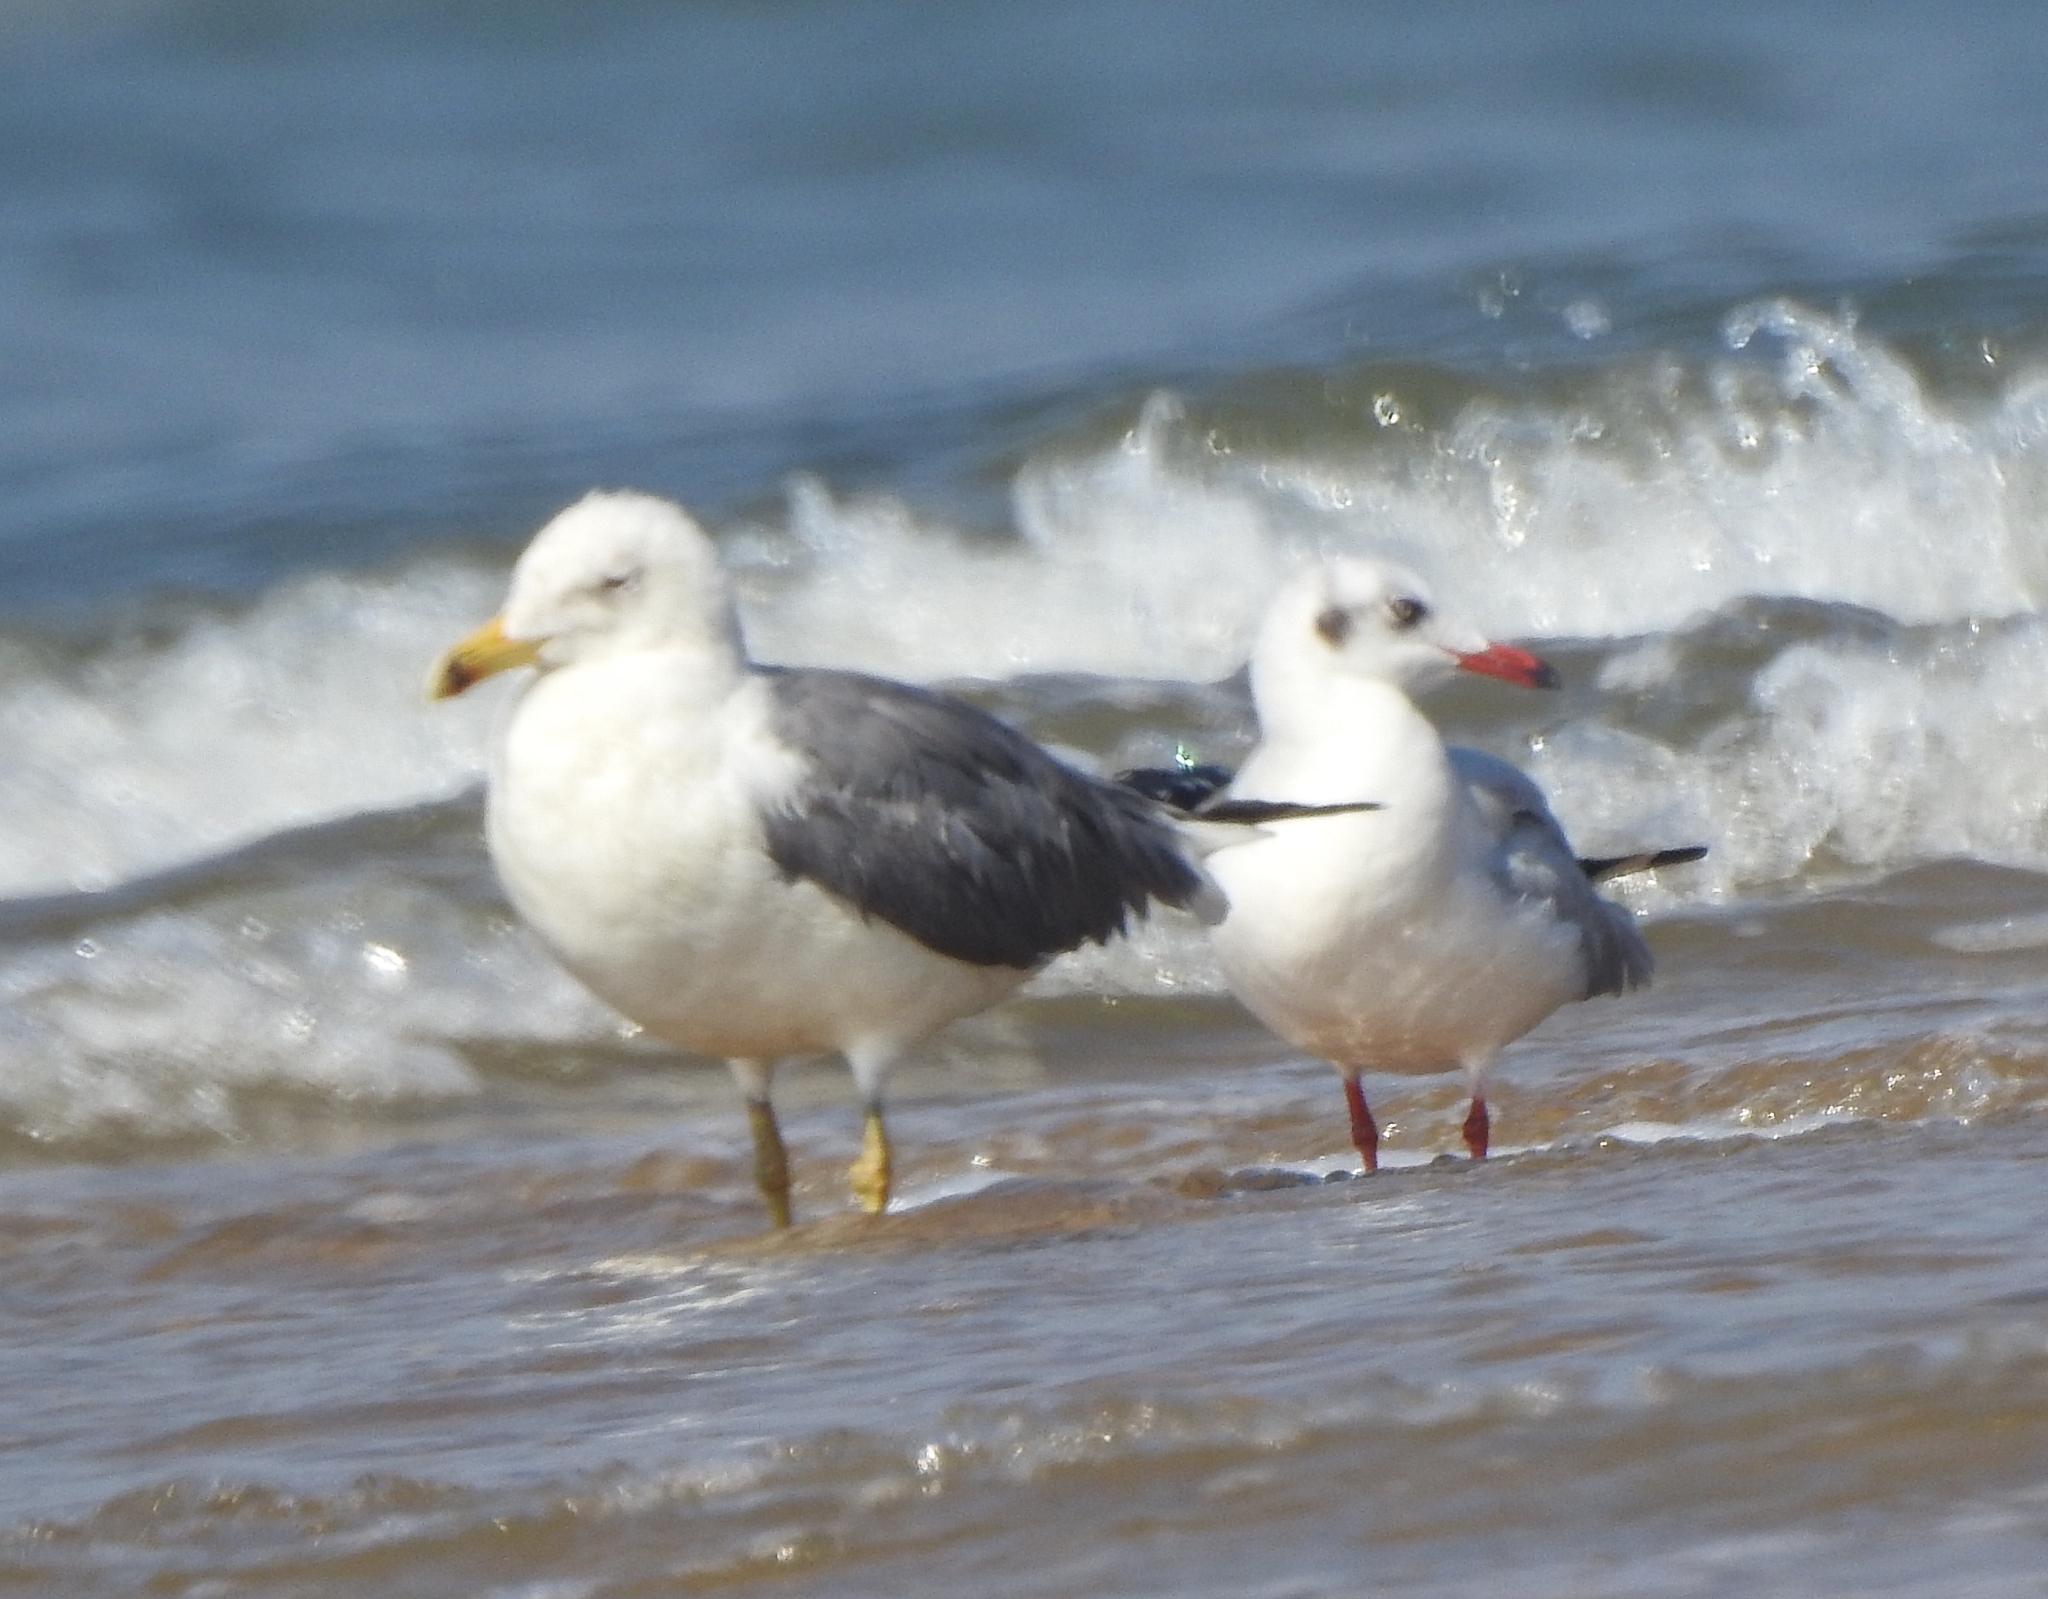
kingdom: Animalia
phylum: Chordata
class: Aves
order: Charadriiformes
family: Laridae
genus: Chroicocephalus
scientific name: Chroicocephalus brunnicephalus
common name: Brown-headed gull
